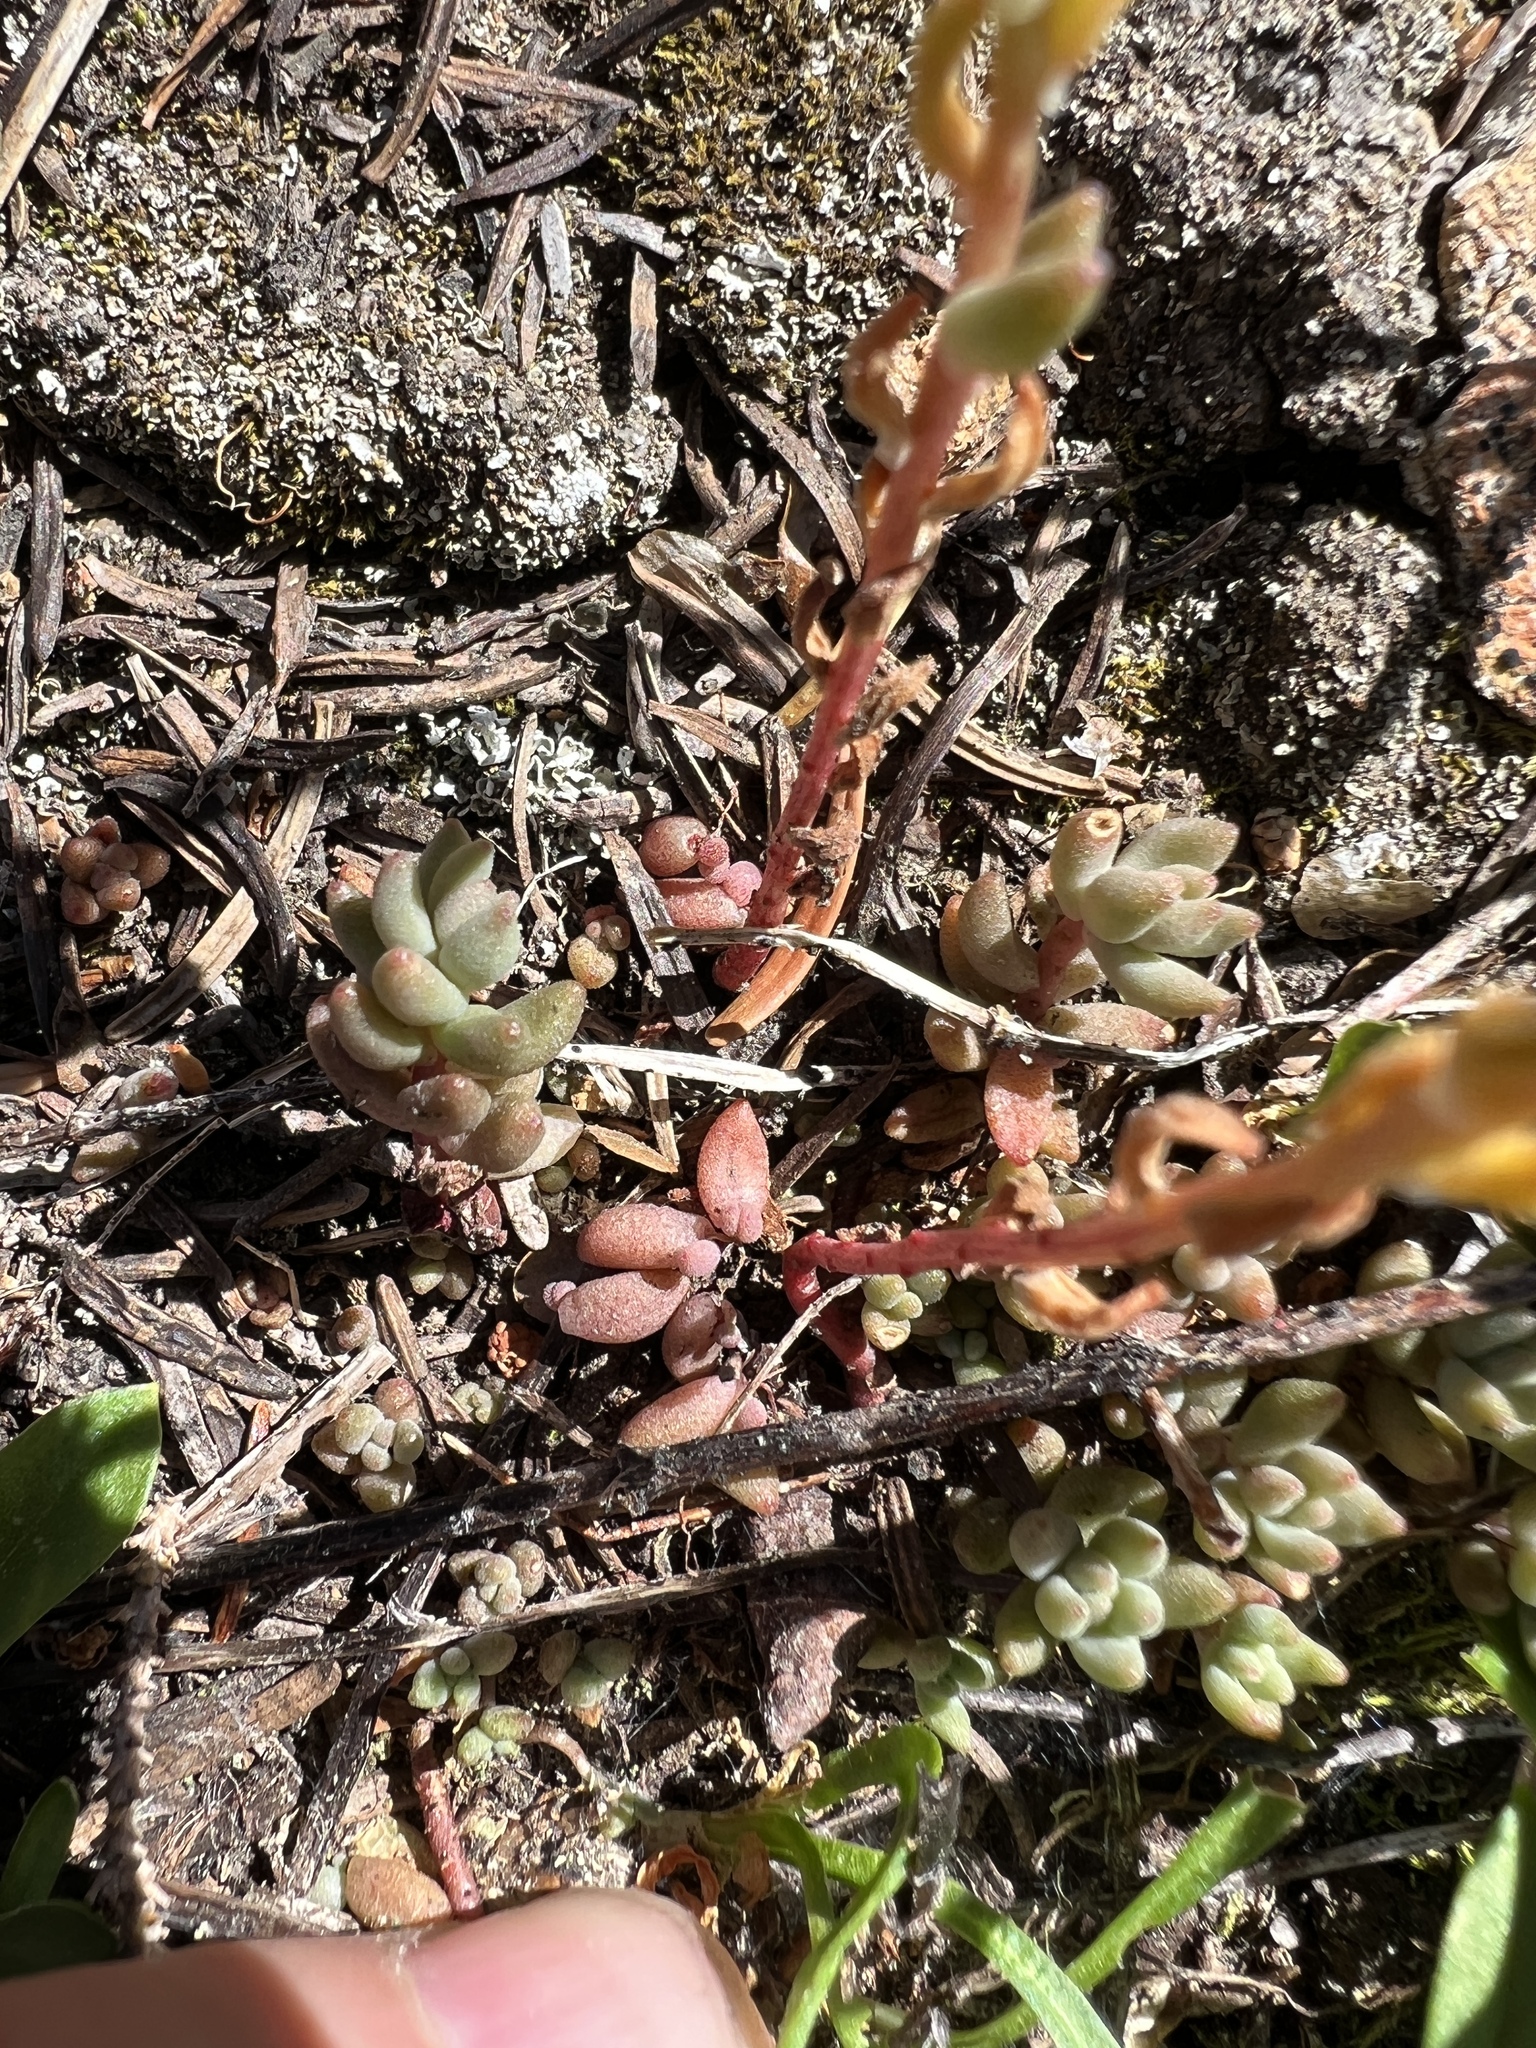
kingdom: Plantae
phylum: Tracheophyta
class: Magnoliopsida
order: Saxifragales
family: Crassulaceae
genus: Sedum
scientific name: Sedum lanceolatum
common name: Common stonecrop
